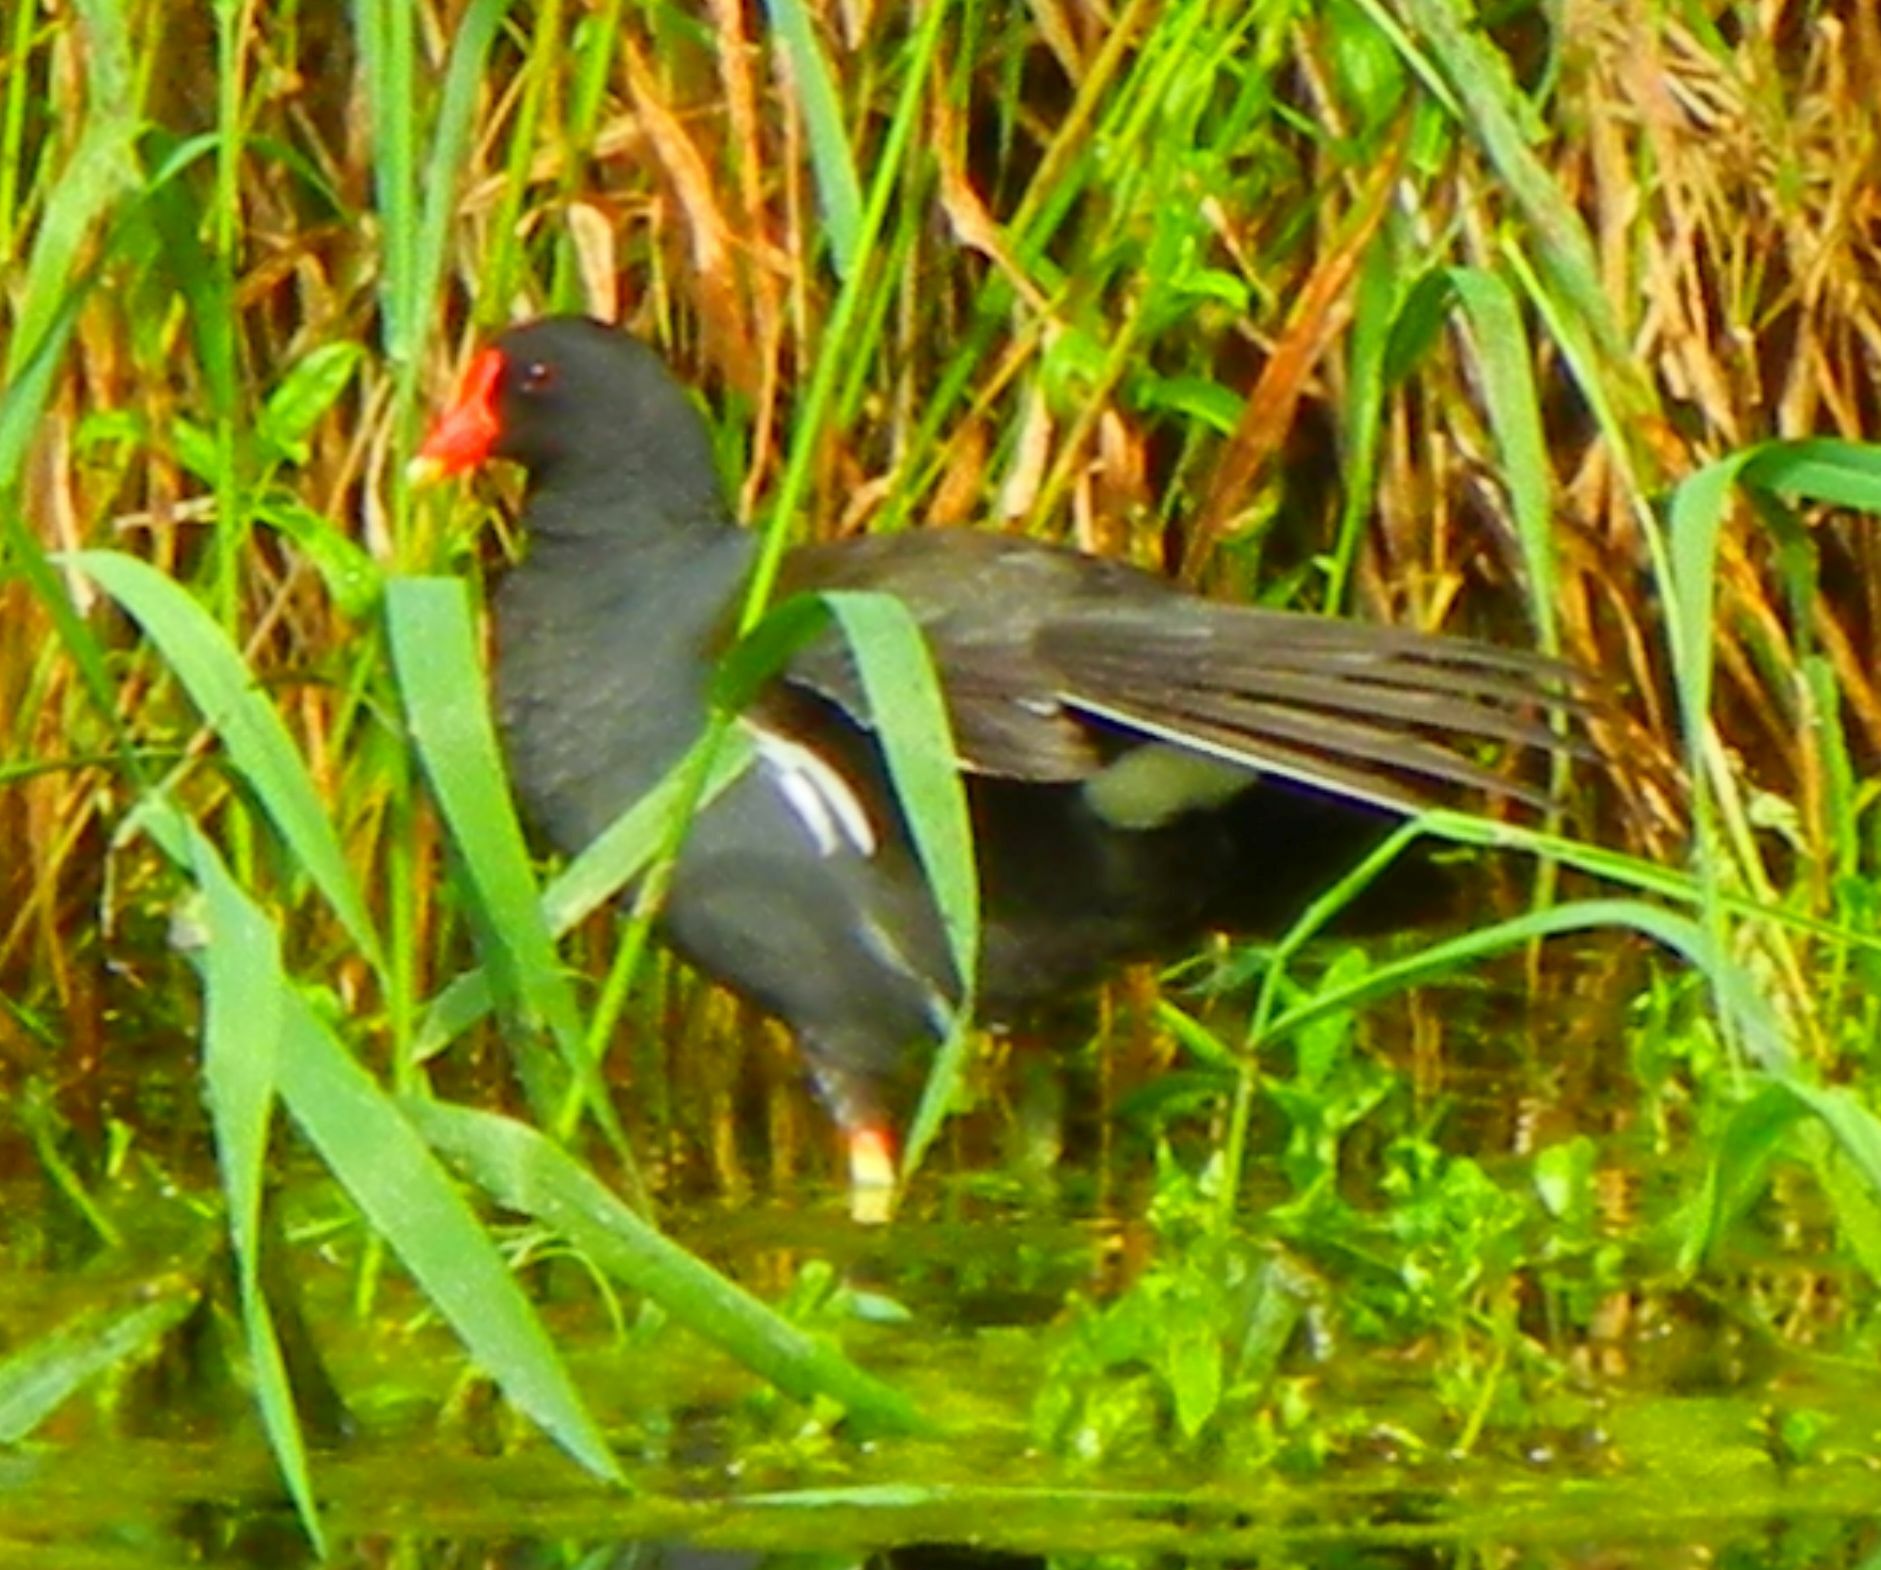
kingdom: Animalia
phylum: Chordata
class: Aves
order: Gruiformes
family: Rallidae
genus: Gallinula
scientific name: Gallinula chloropus
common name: Common moorhen
